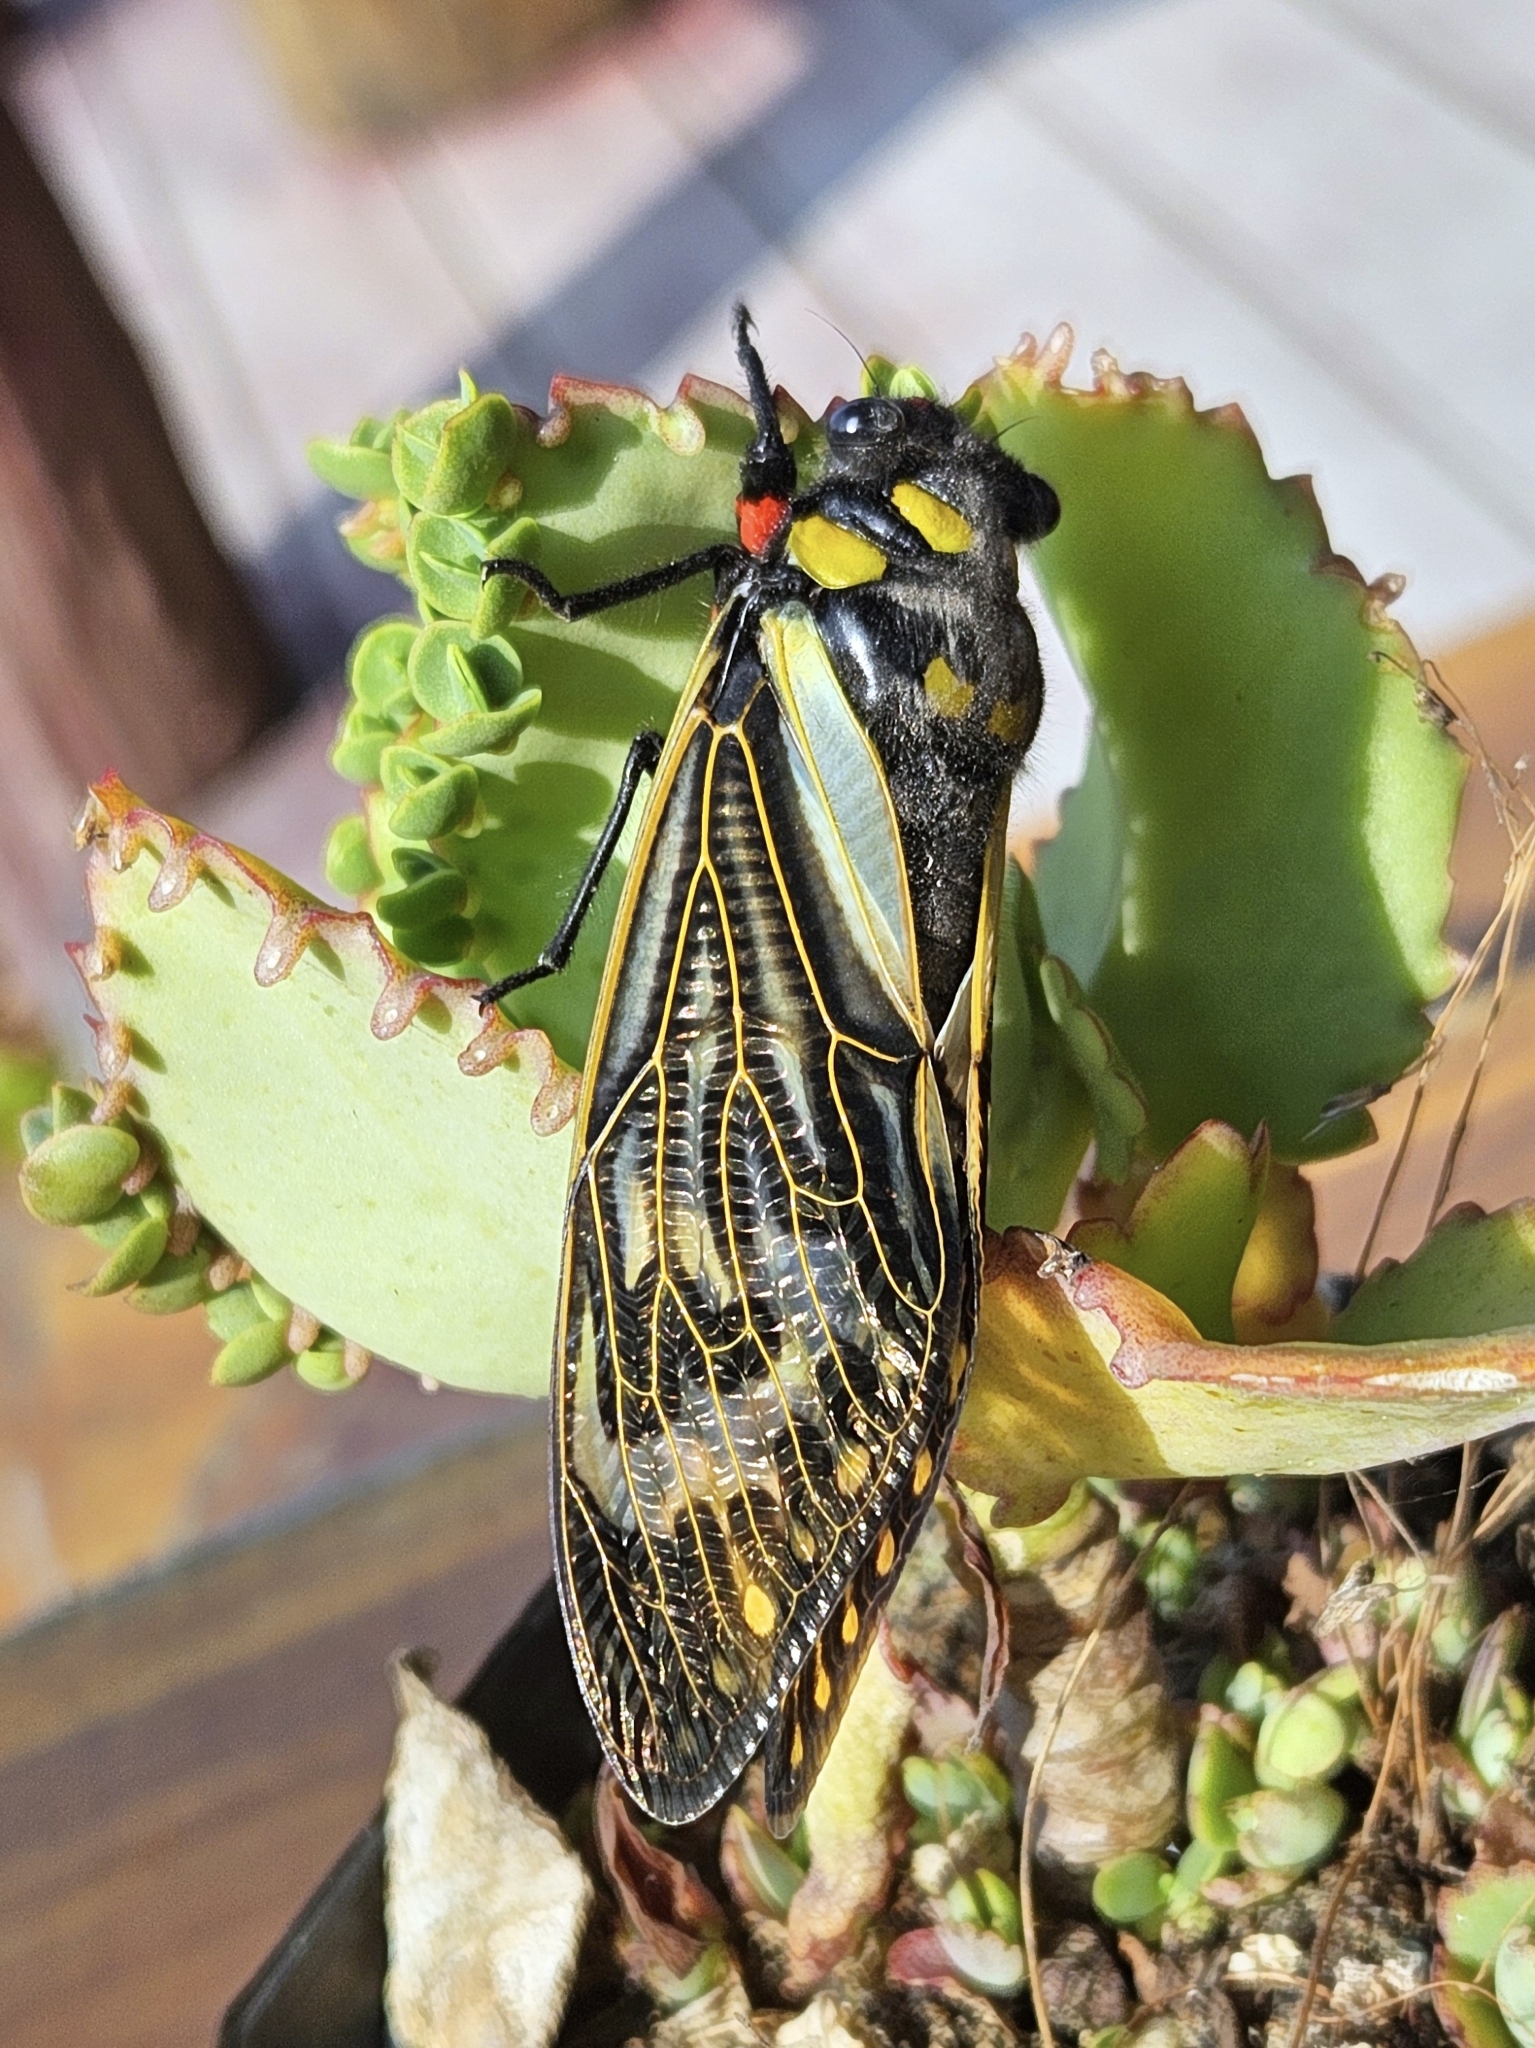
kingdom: Animalia
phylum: Arthropoda
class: Insecta
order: Hemiptera
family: Cicadidae
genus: Distantalna
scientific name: Distantalna splendida
